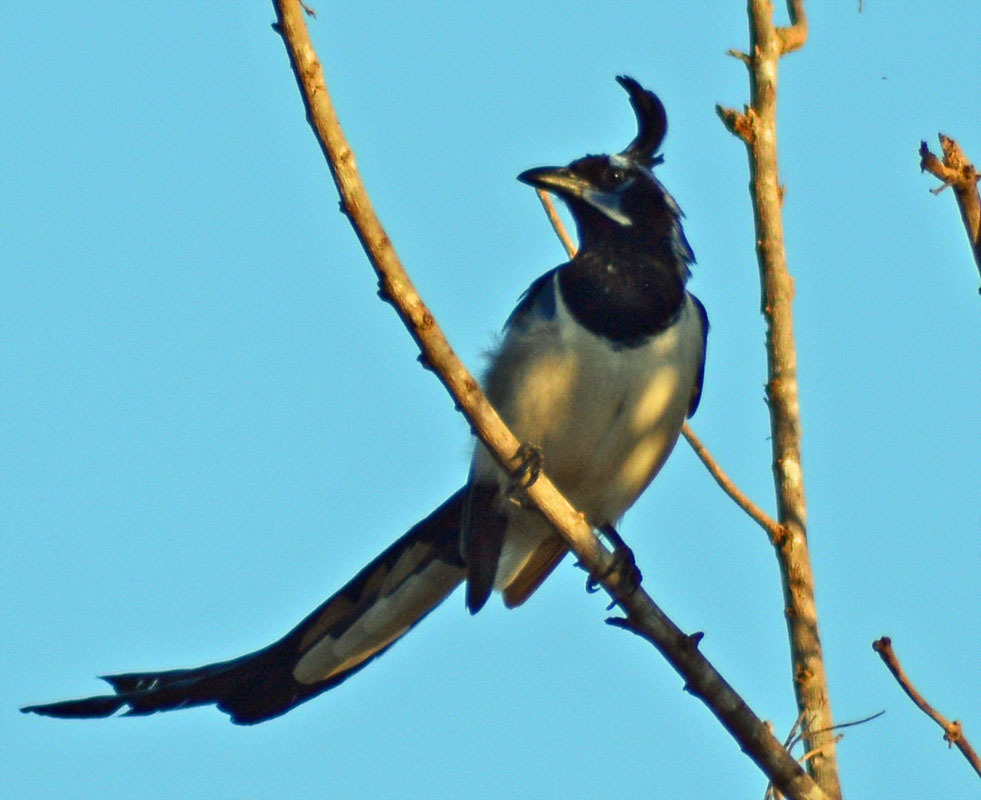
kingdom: Animalia
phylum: Chordata
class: Aves
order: Passeriformes
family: Corvidae
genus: Calocitta
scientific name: Calocitta colliei
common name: Black-throated magpie-jay
